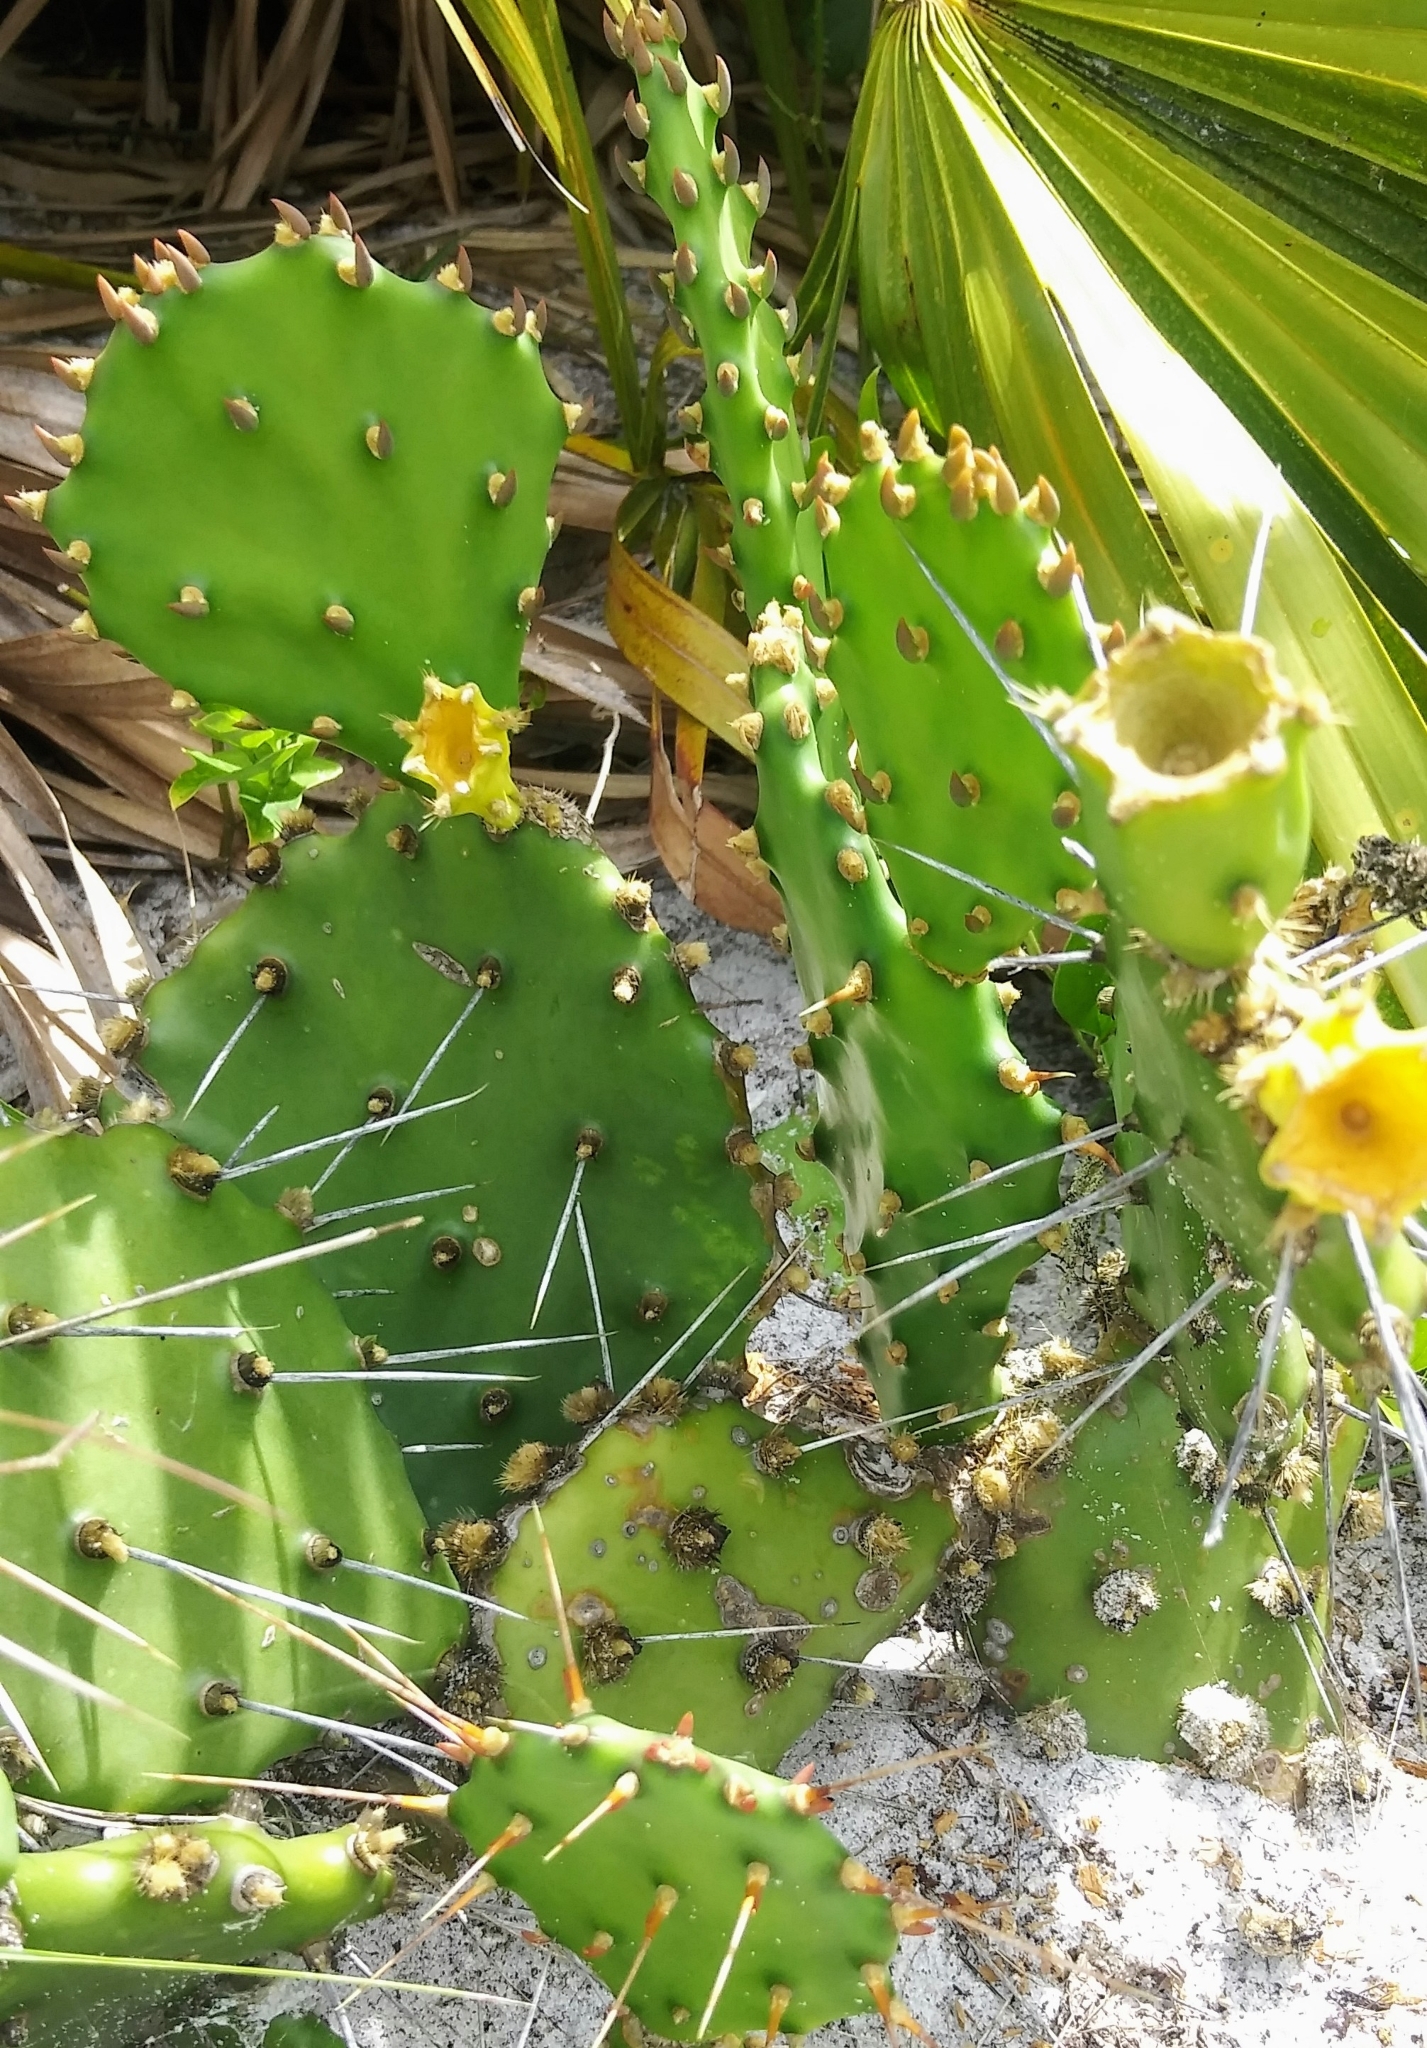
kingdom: Plantae
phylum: Tracheophyta
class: Magnoliopsida
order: Caryophyllales
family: Cactaceae
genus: Opuntia
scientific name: Opuntia austrina
